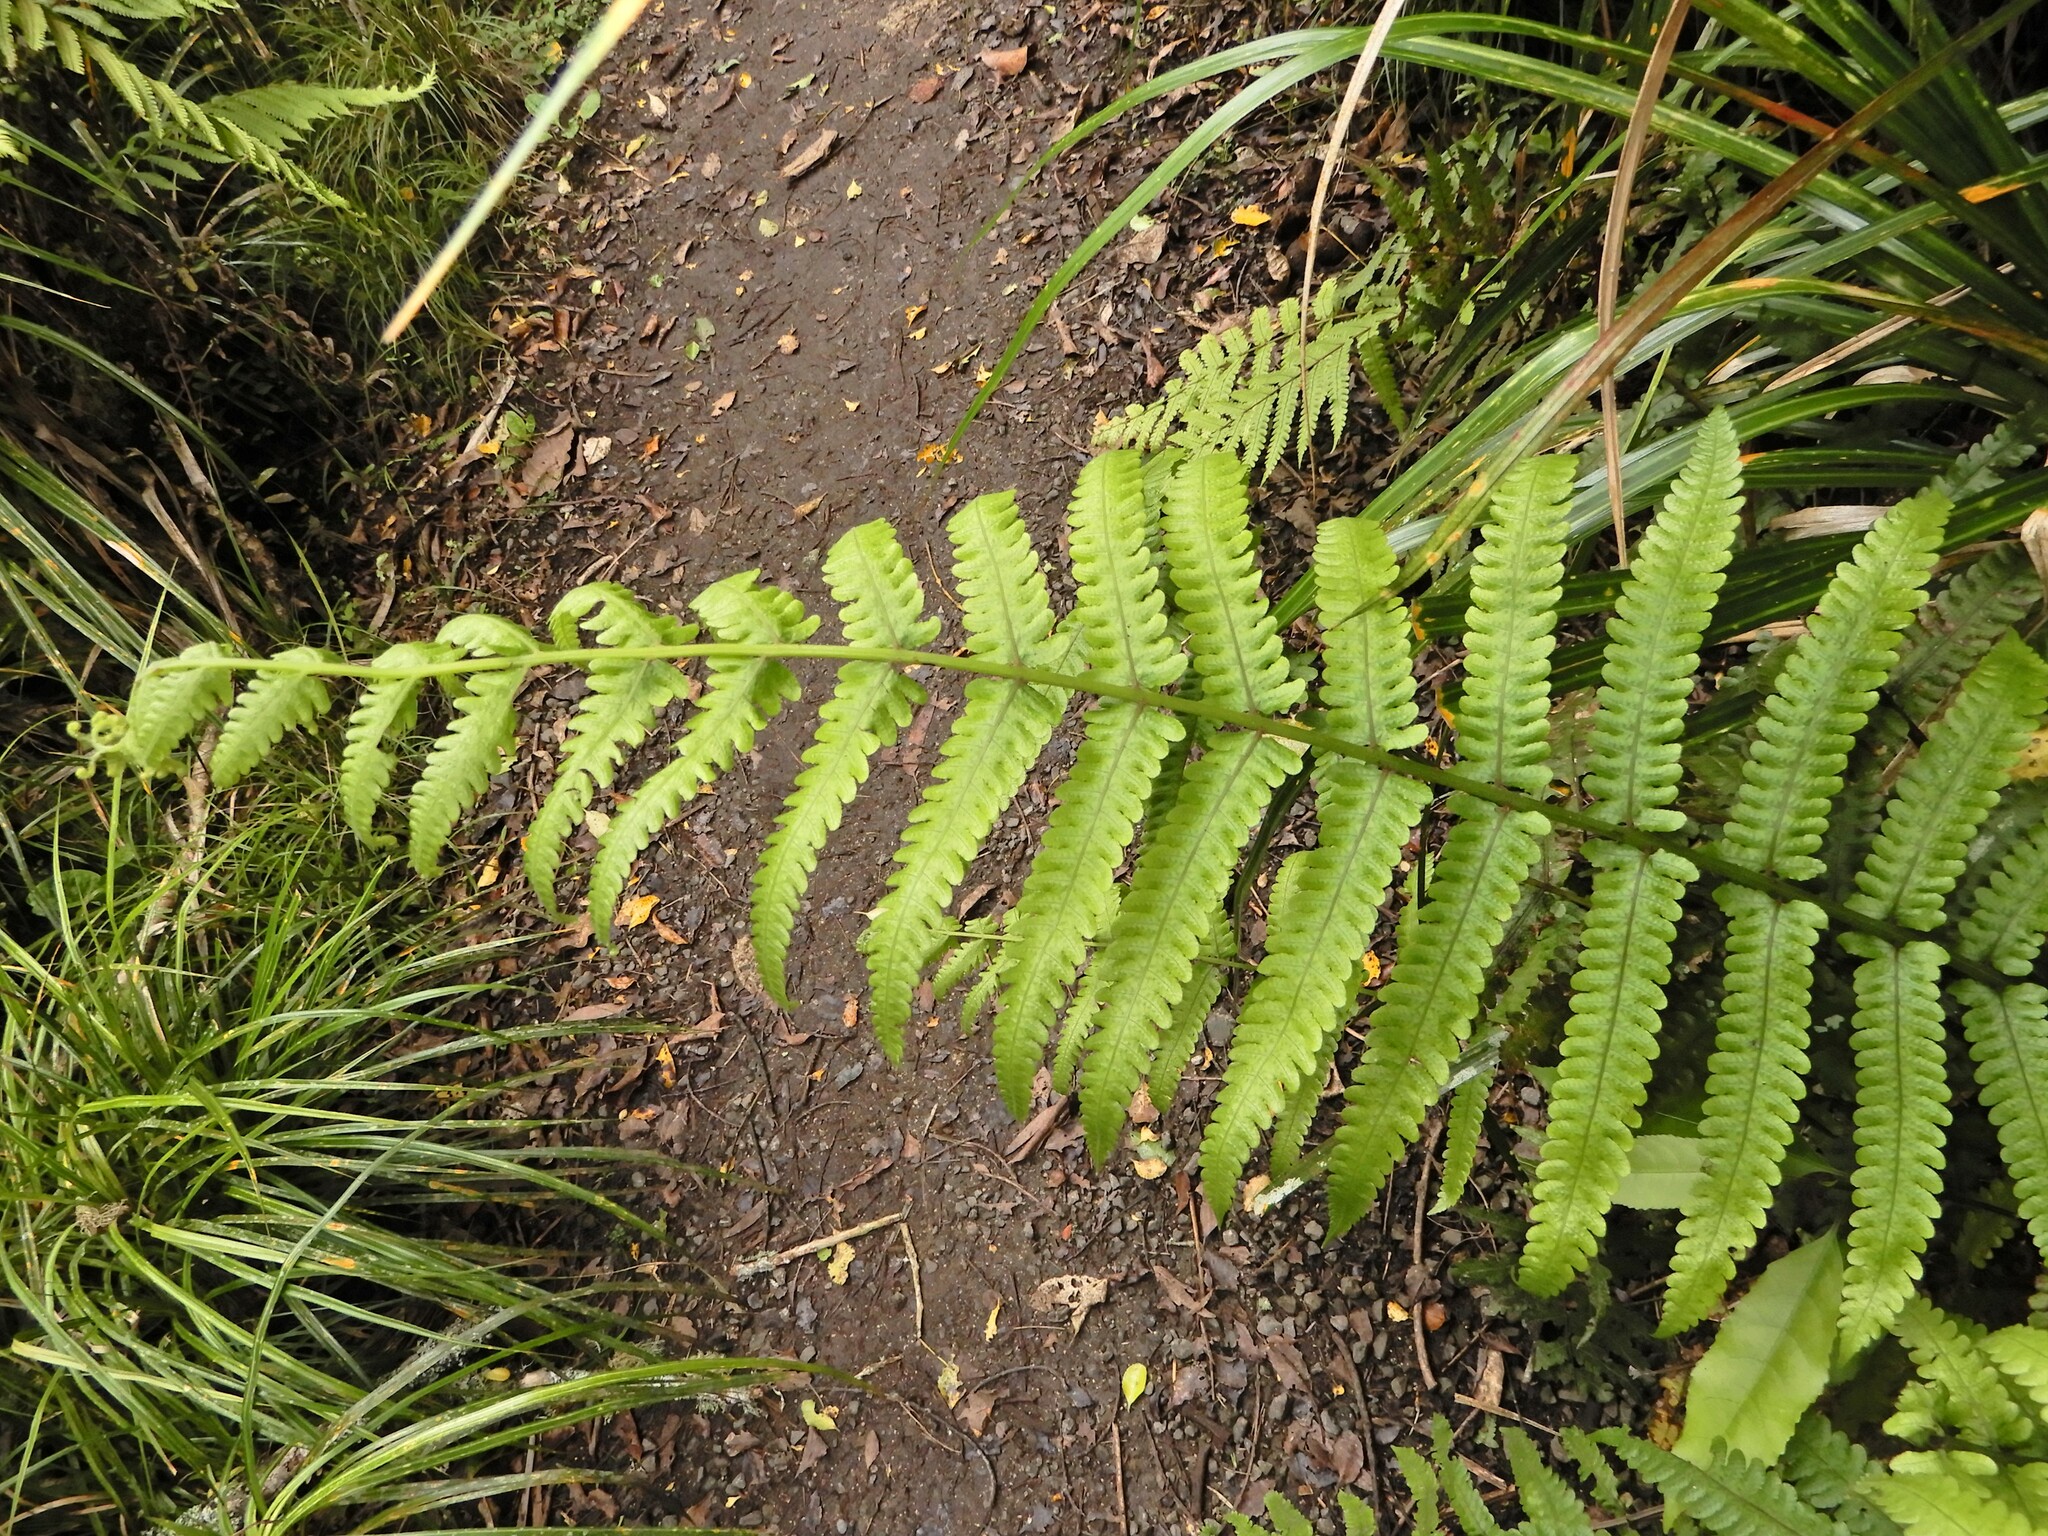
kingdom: Plantae
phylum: Tracheophyta
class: Polypodiopsida
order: Polypodiales
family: Thelypteridaceae
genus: Pakau
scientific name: Pakau pennigera
